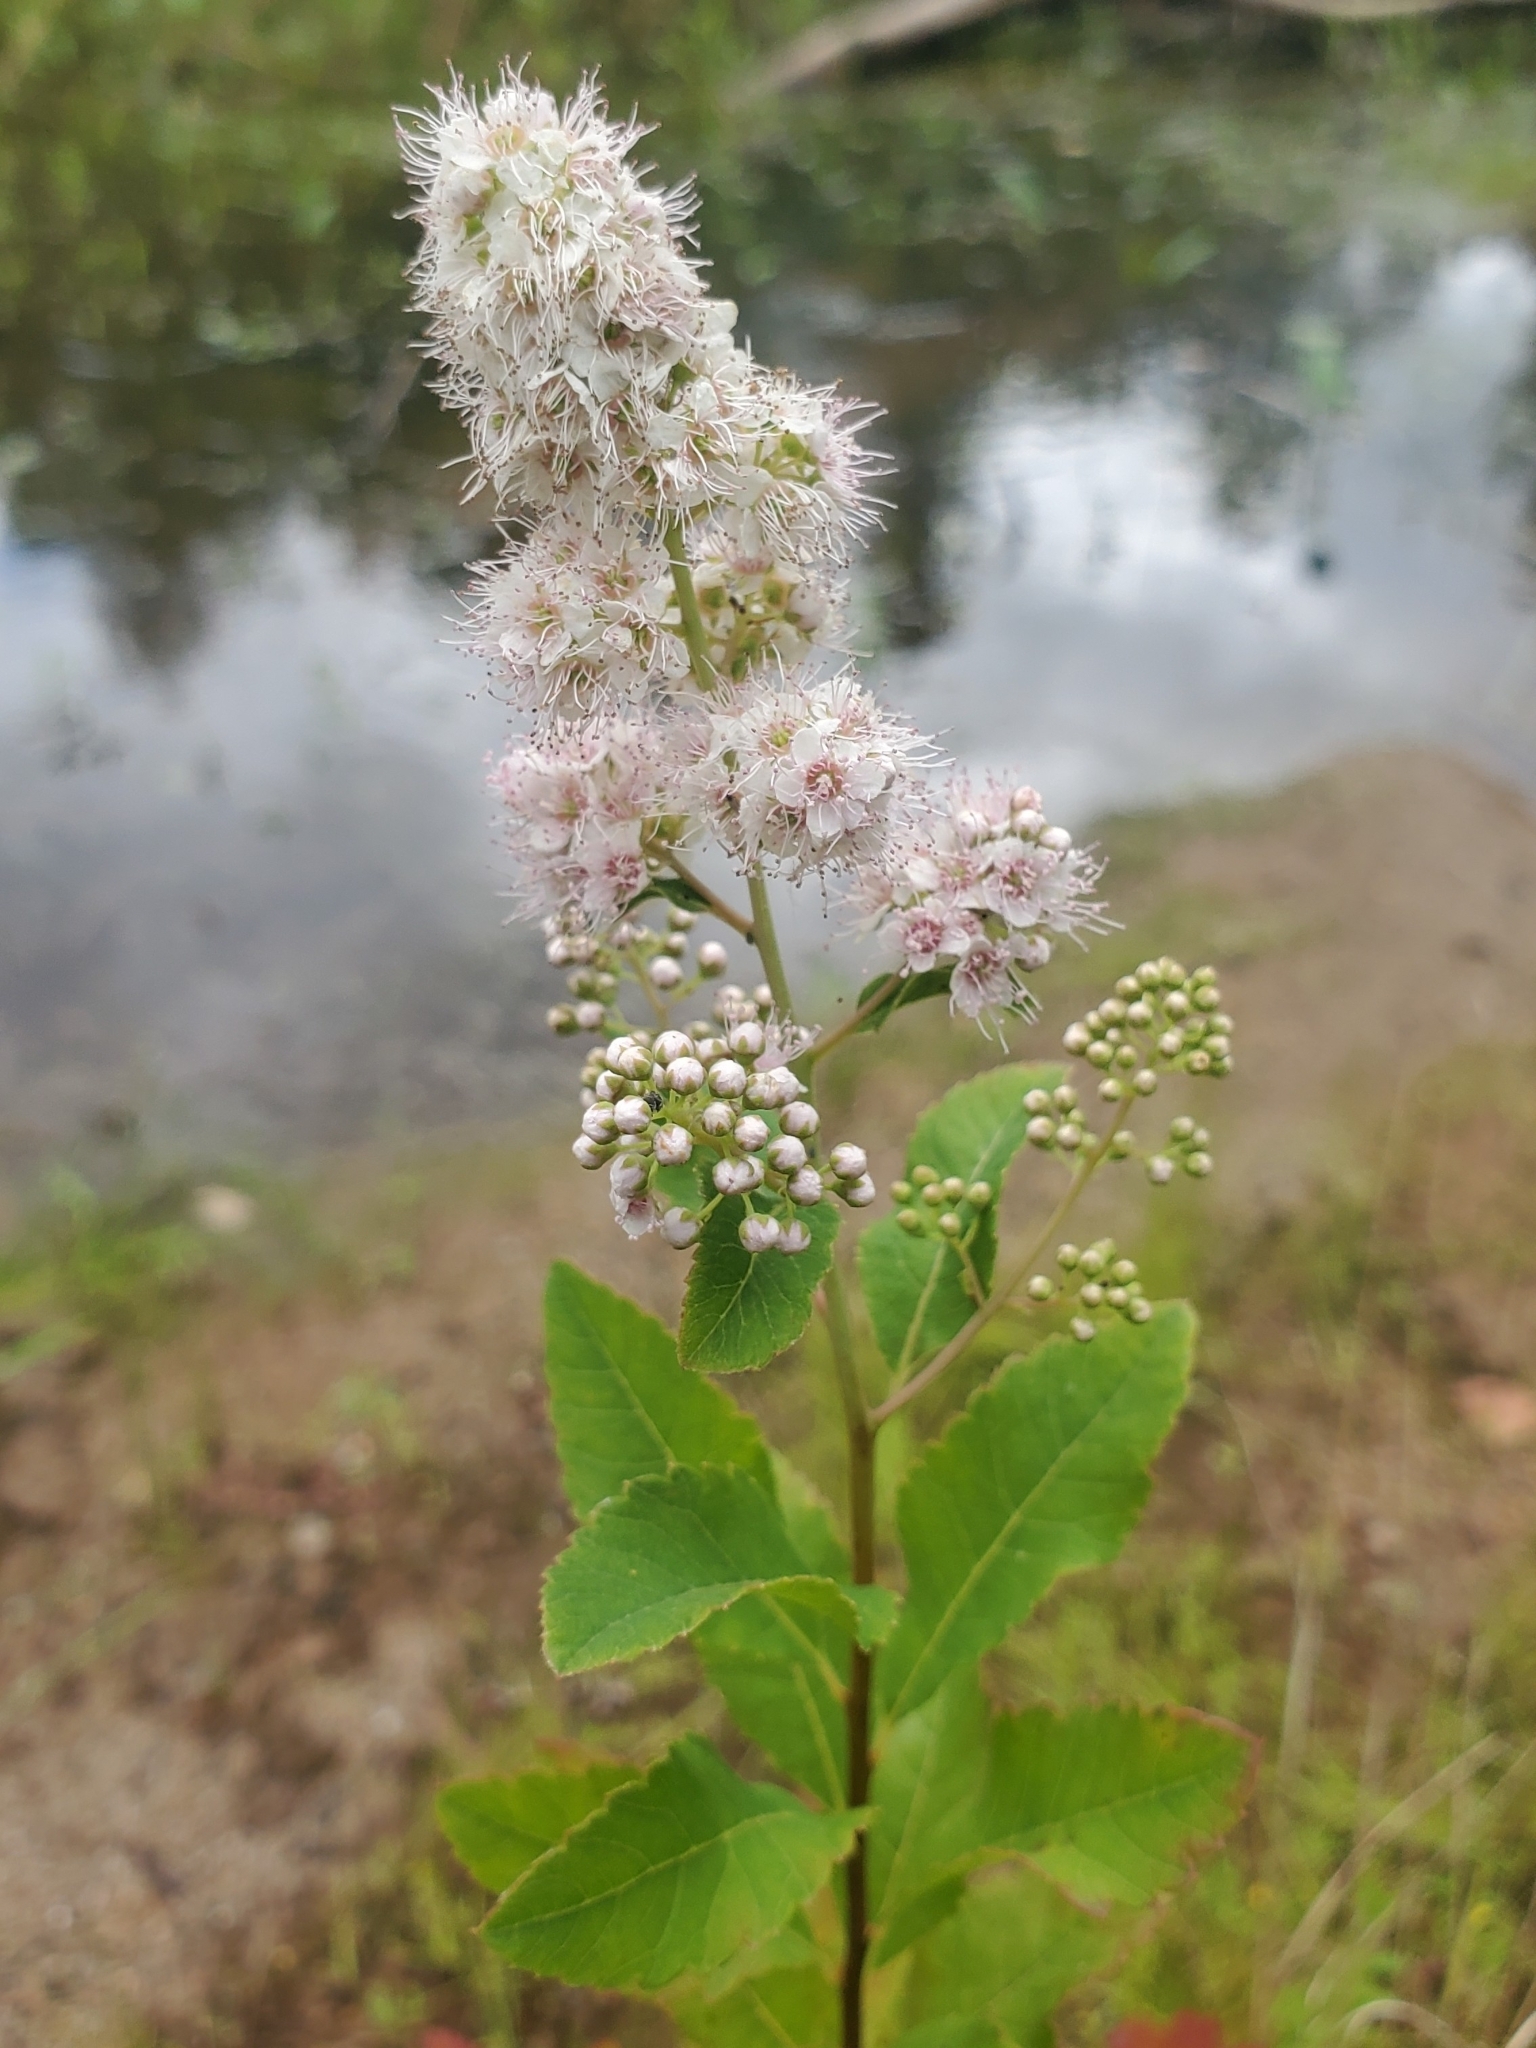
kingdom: Plantae
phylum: Tracheophyta
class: Magnoliopsida
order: Rosales
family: Rosaceae
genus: Spiraea
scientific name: Spiraea alba
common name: Pale bridewort
